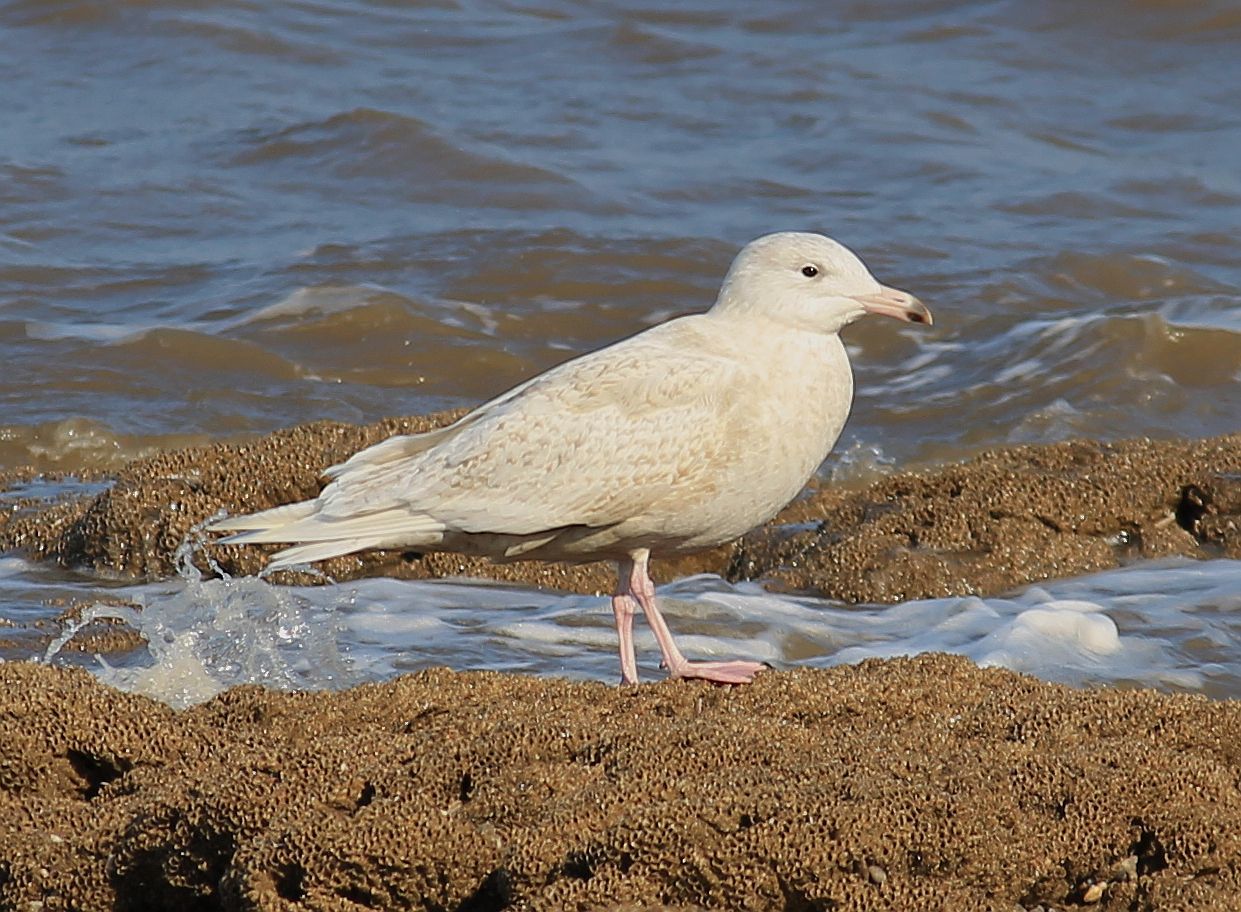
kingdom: Animalia
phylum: Chordata
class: Aves
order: Charadriiformes
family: Laridae
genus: Larus
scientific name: Larus hyperboreus
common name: Glaucous gull
